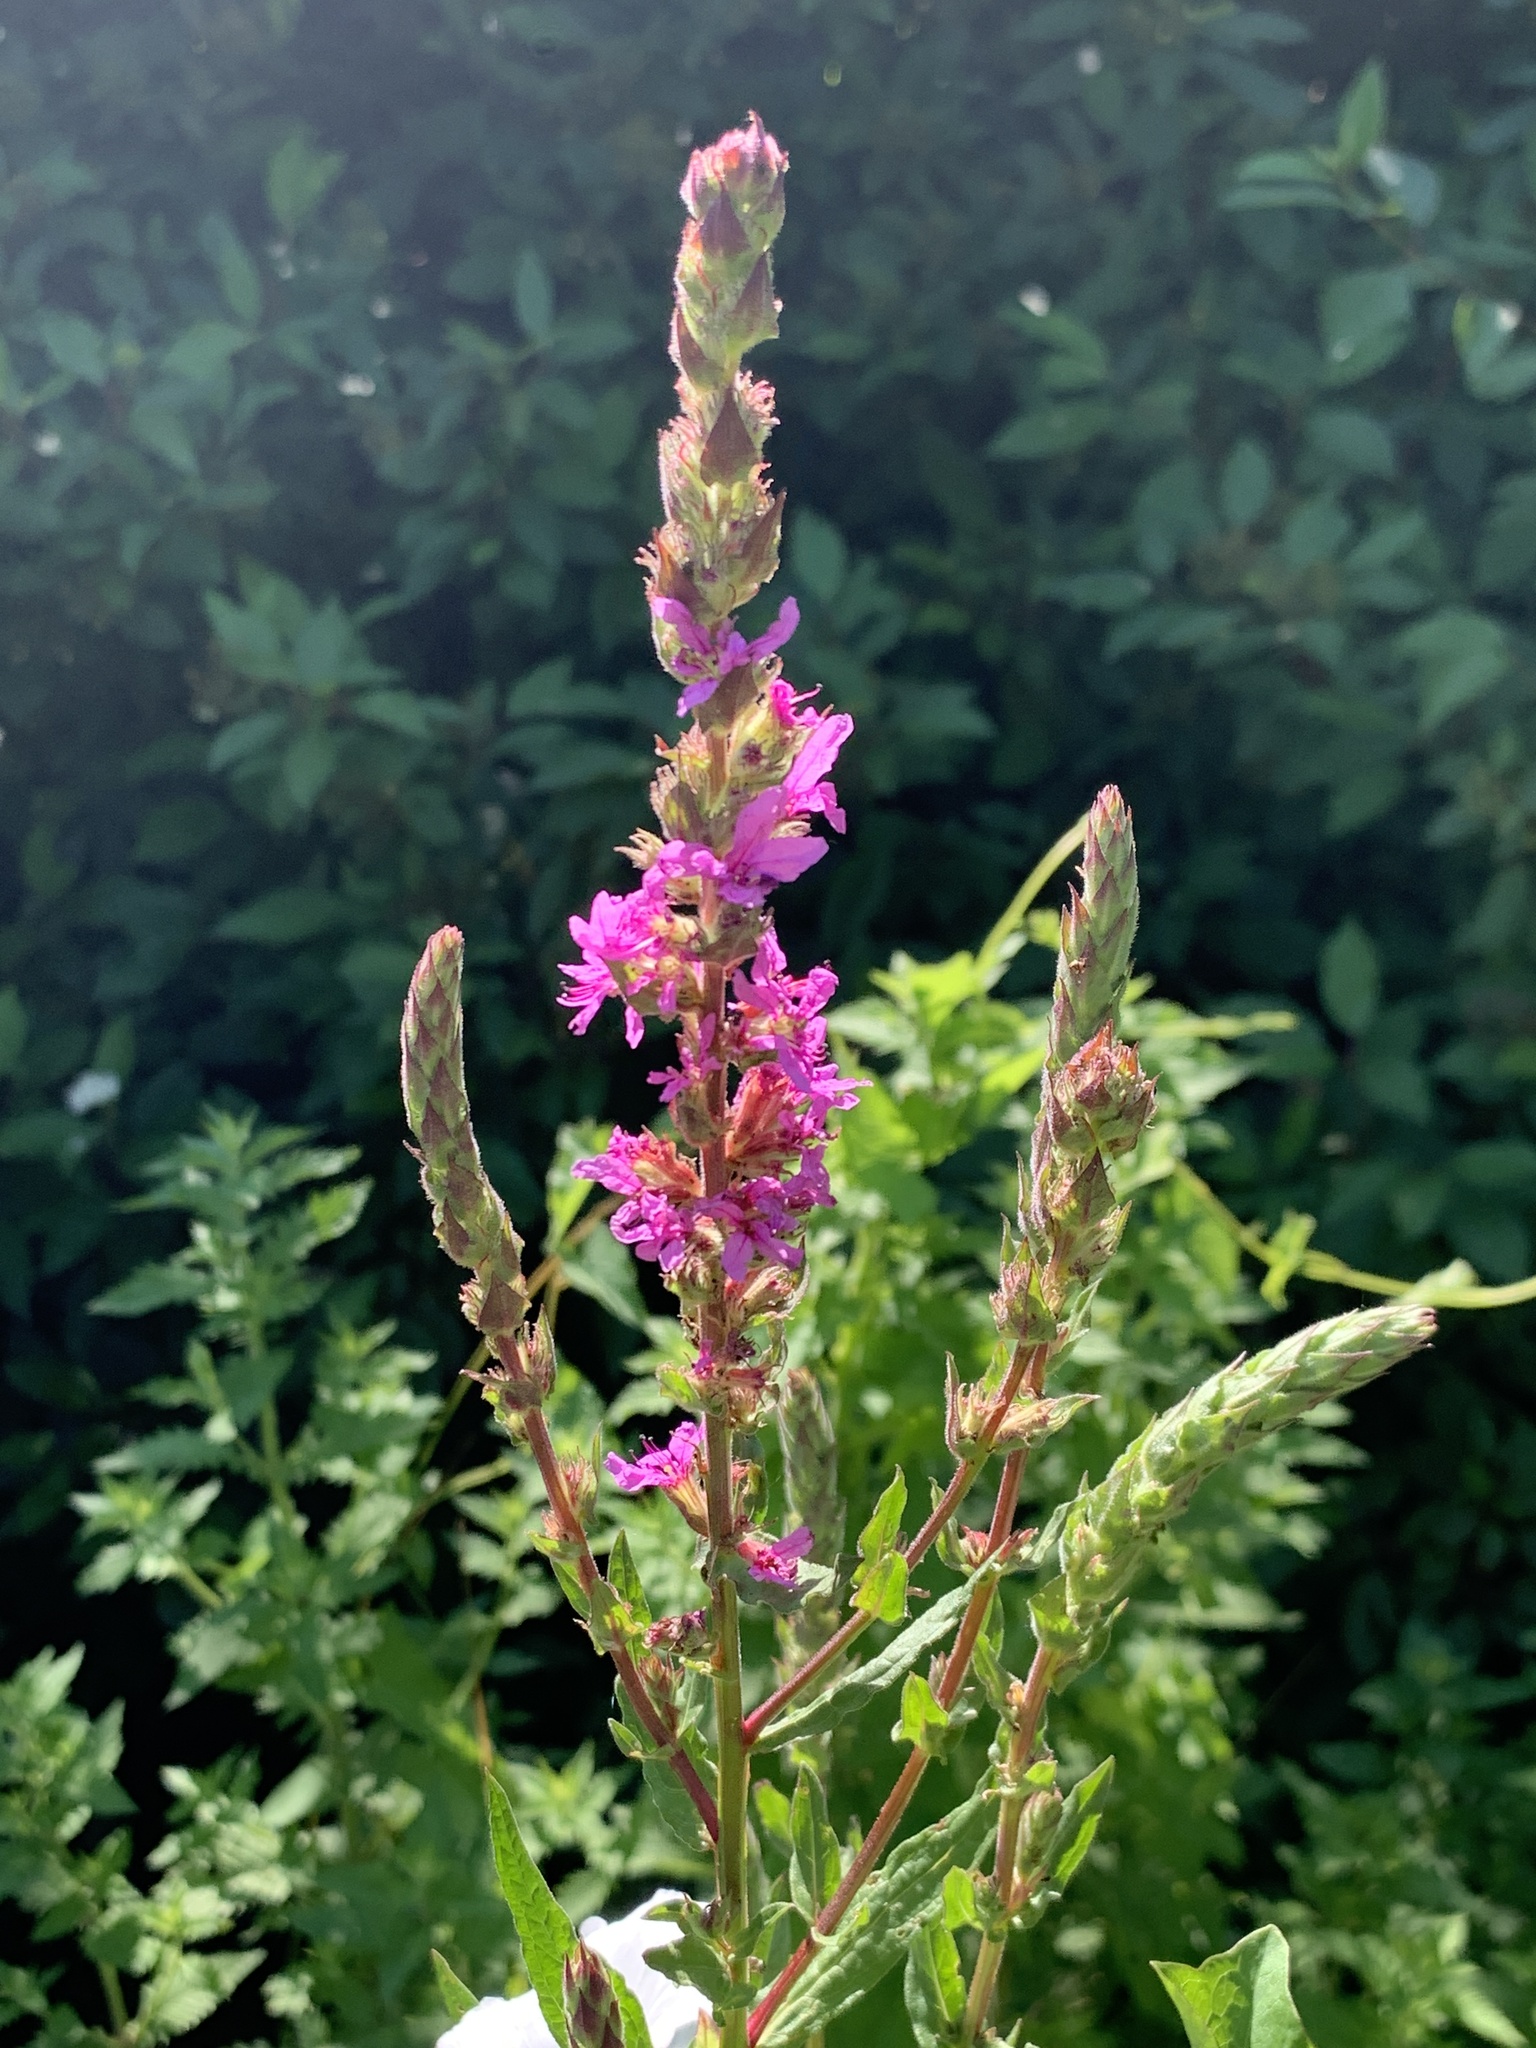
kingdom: Plantae
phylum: Tracheophyta
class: Magnoliopsida
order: Myrtales
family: Lythraceae
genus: Lythrum
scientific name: Lythrum salicaria
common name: Purple loosestrife
